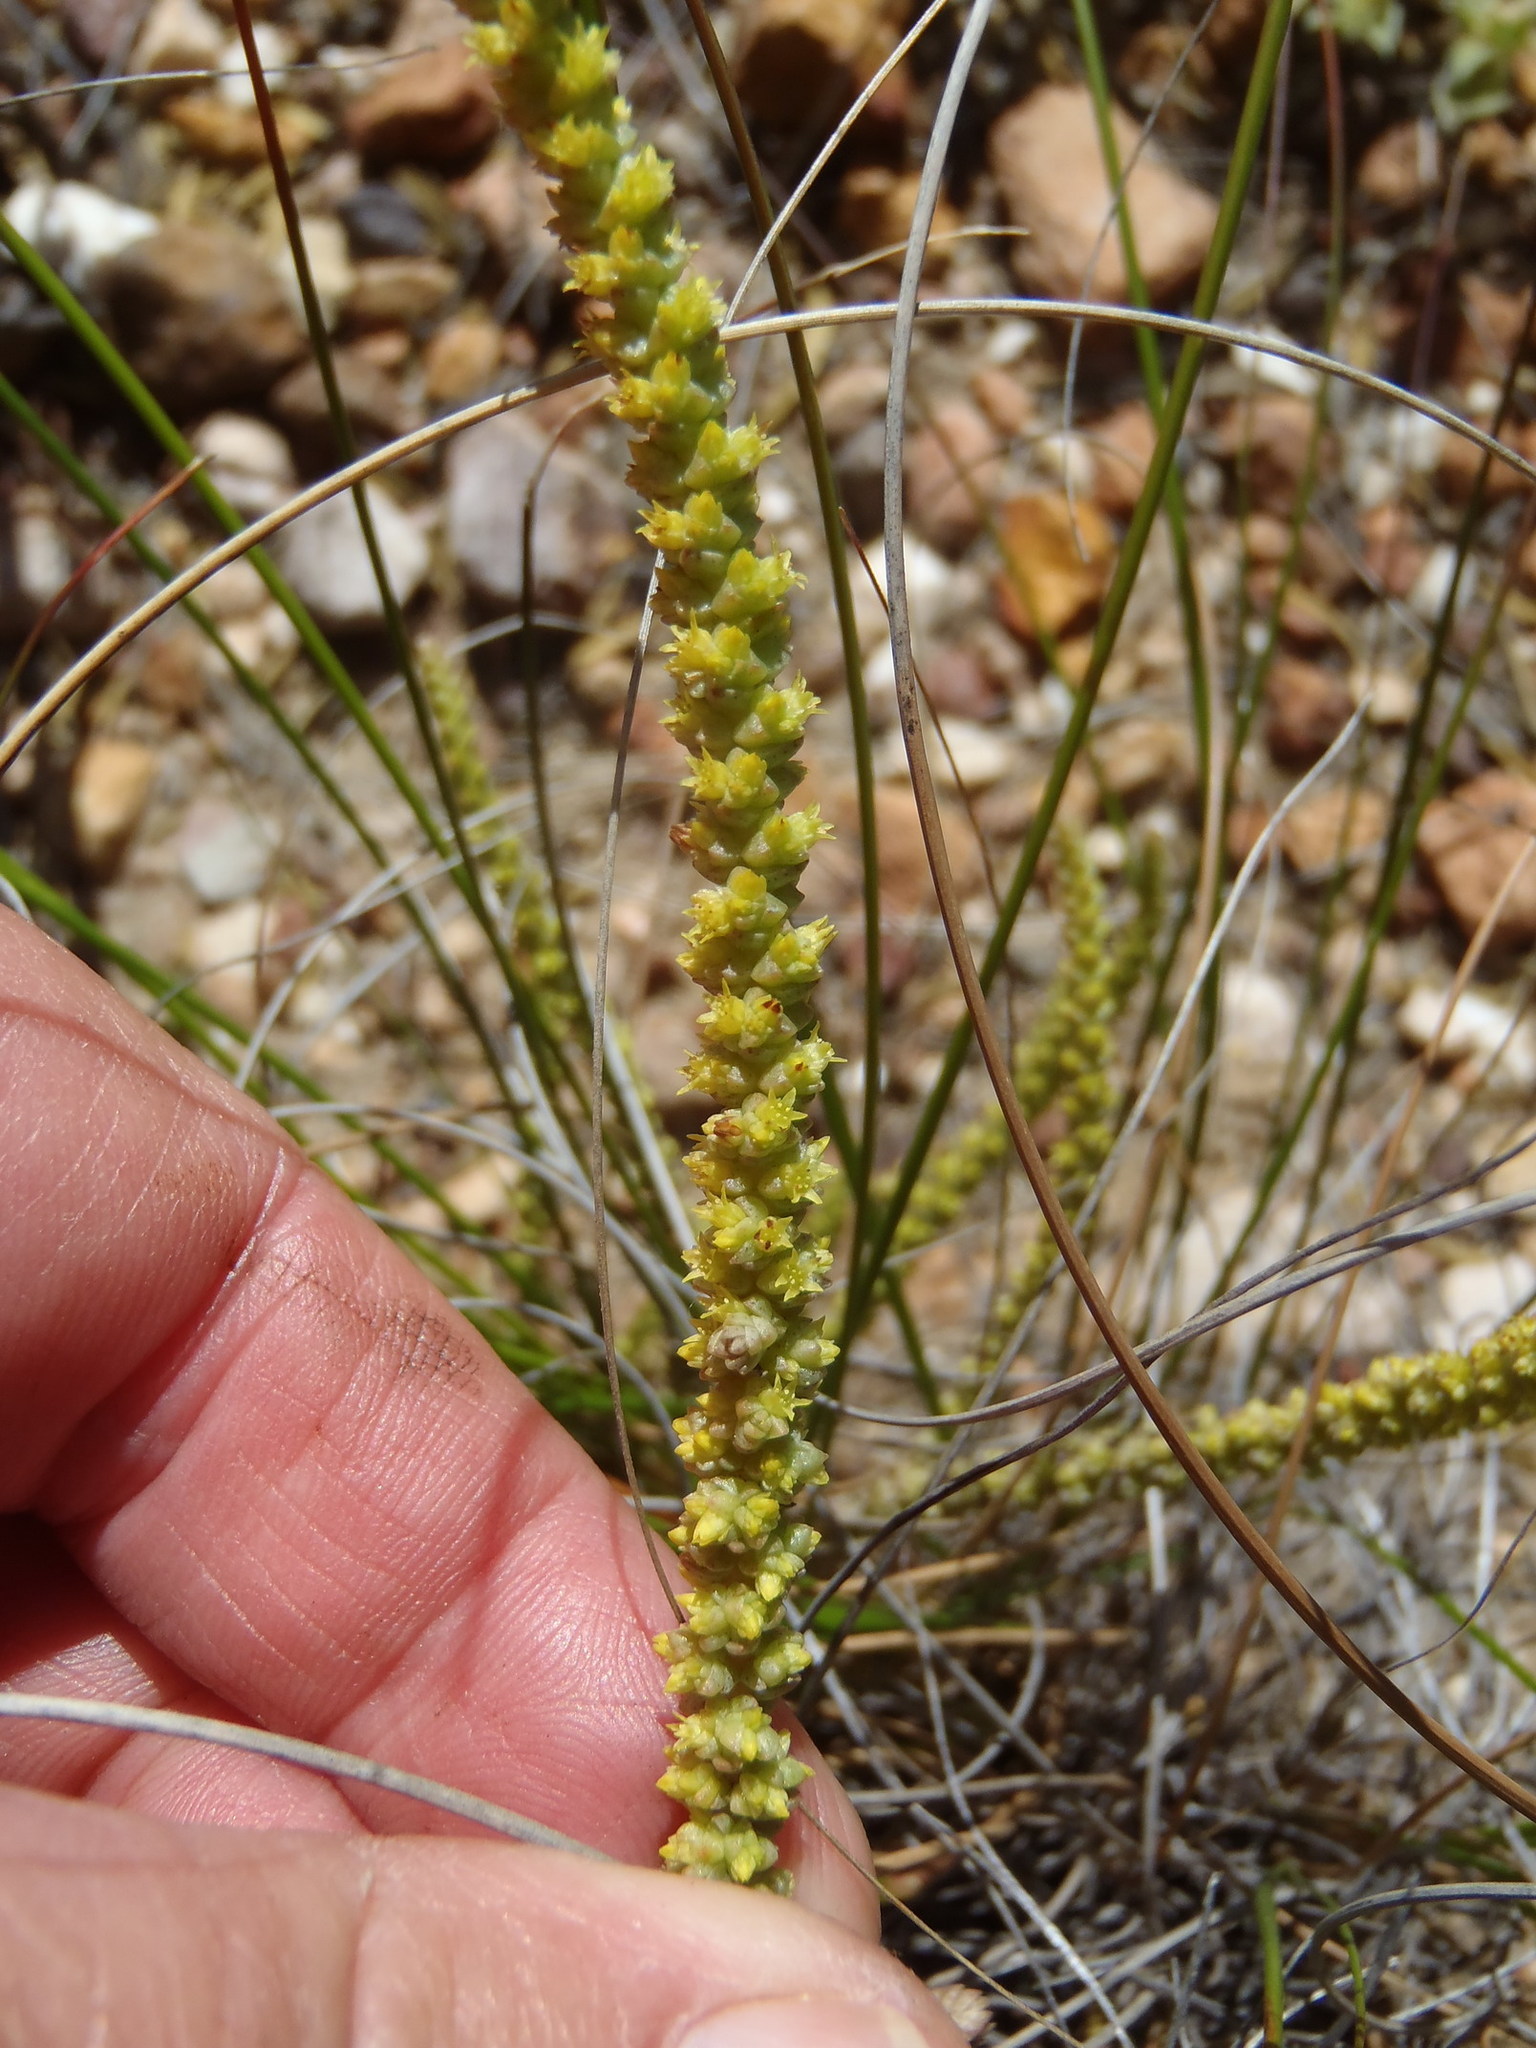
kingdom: Plantae
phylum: Tracheophyta
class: Magnoliopsida
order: Saxifragales
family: Crassulaceae
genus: Crassula
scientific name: Crassula muscosa
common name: Toy-cypress
